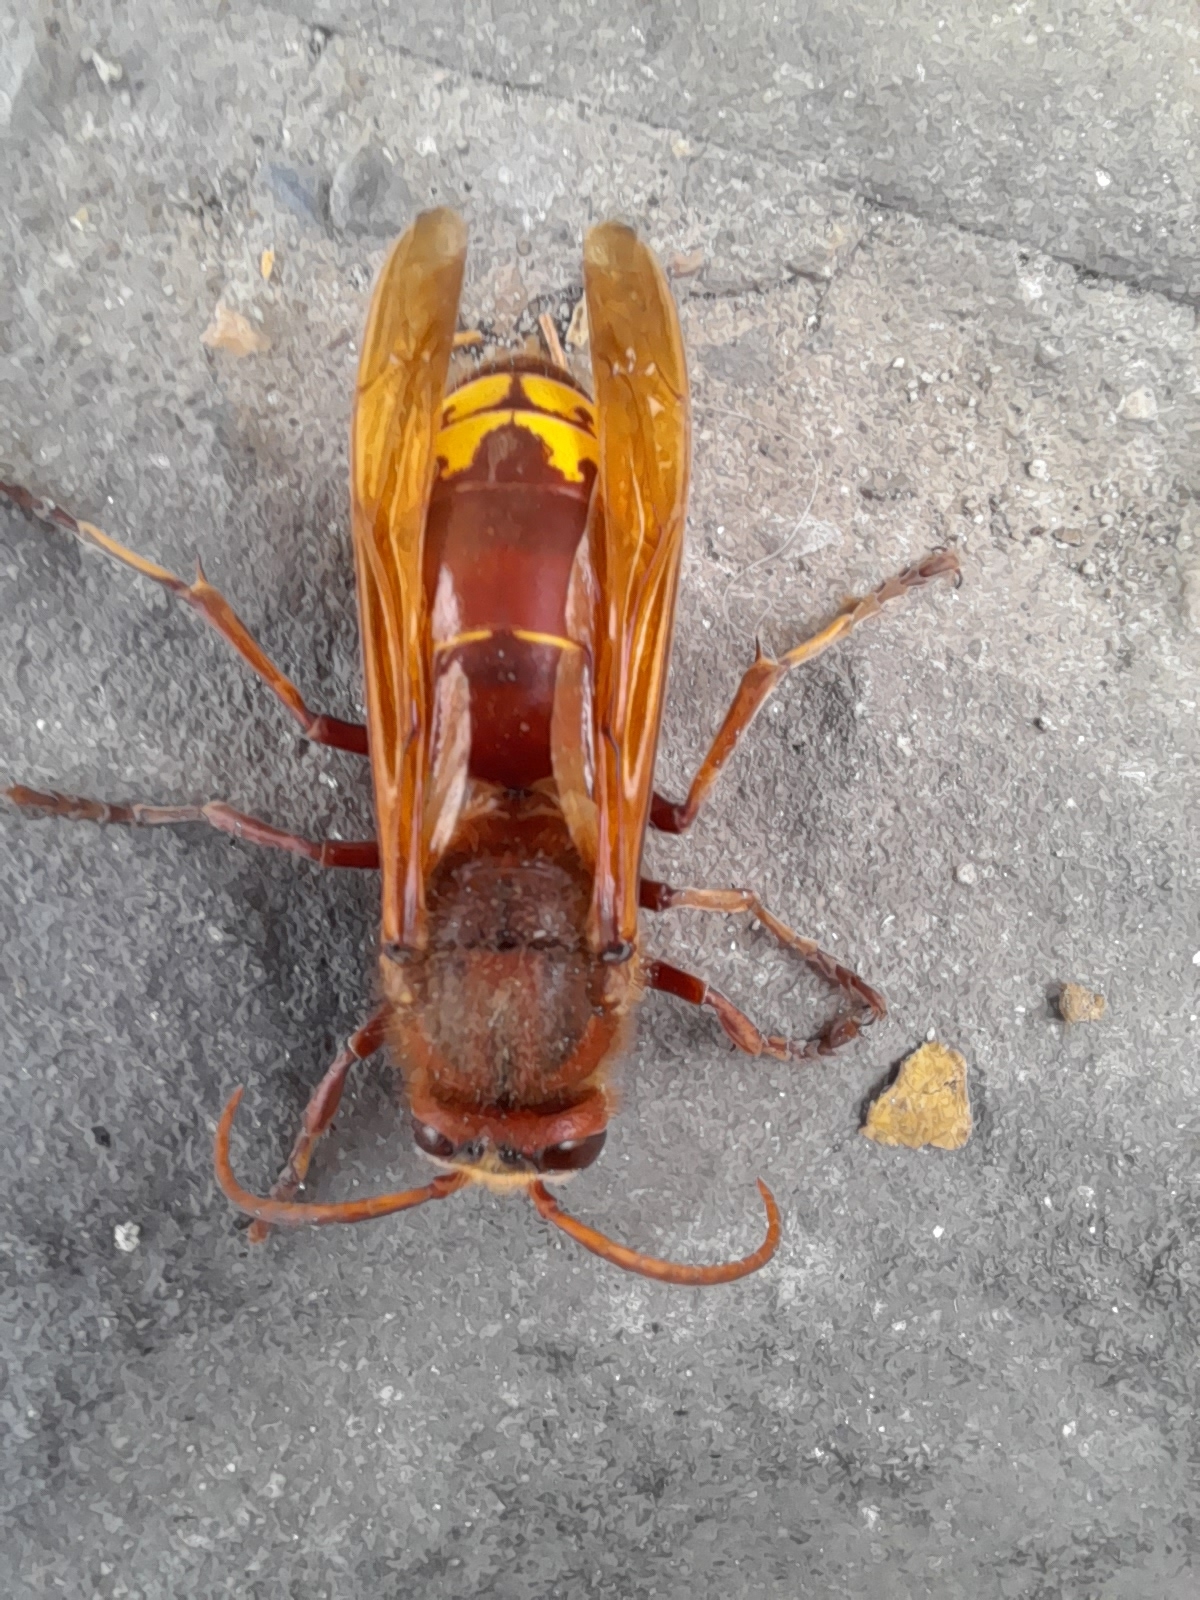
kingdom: Animalia
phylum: Arthropoda
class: Insecta
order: Hymenoptera
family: Vespidae
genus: Vespa
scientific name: Vespa orientalis
